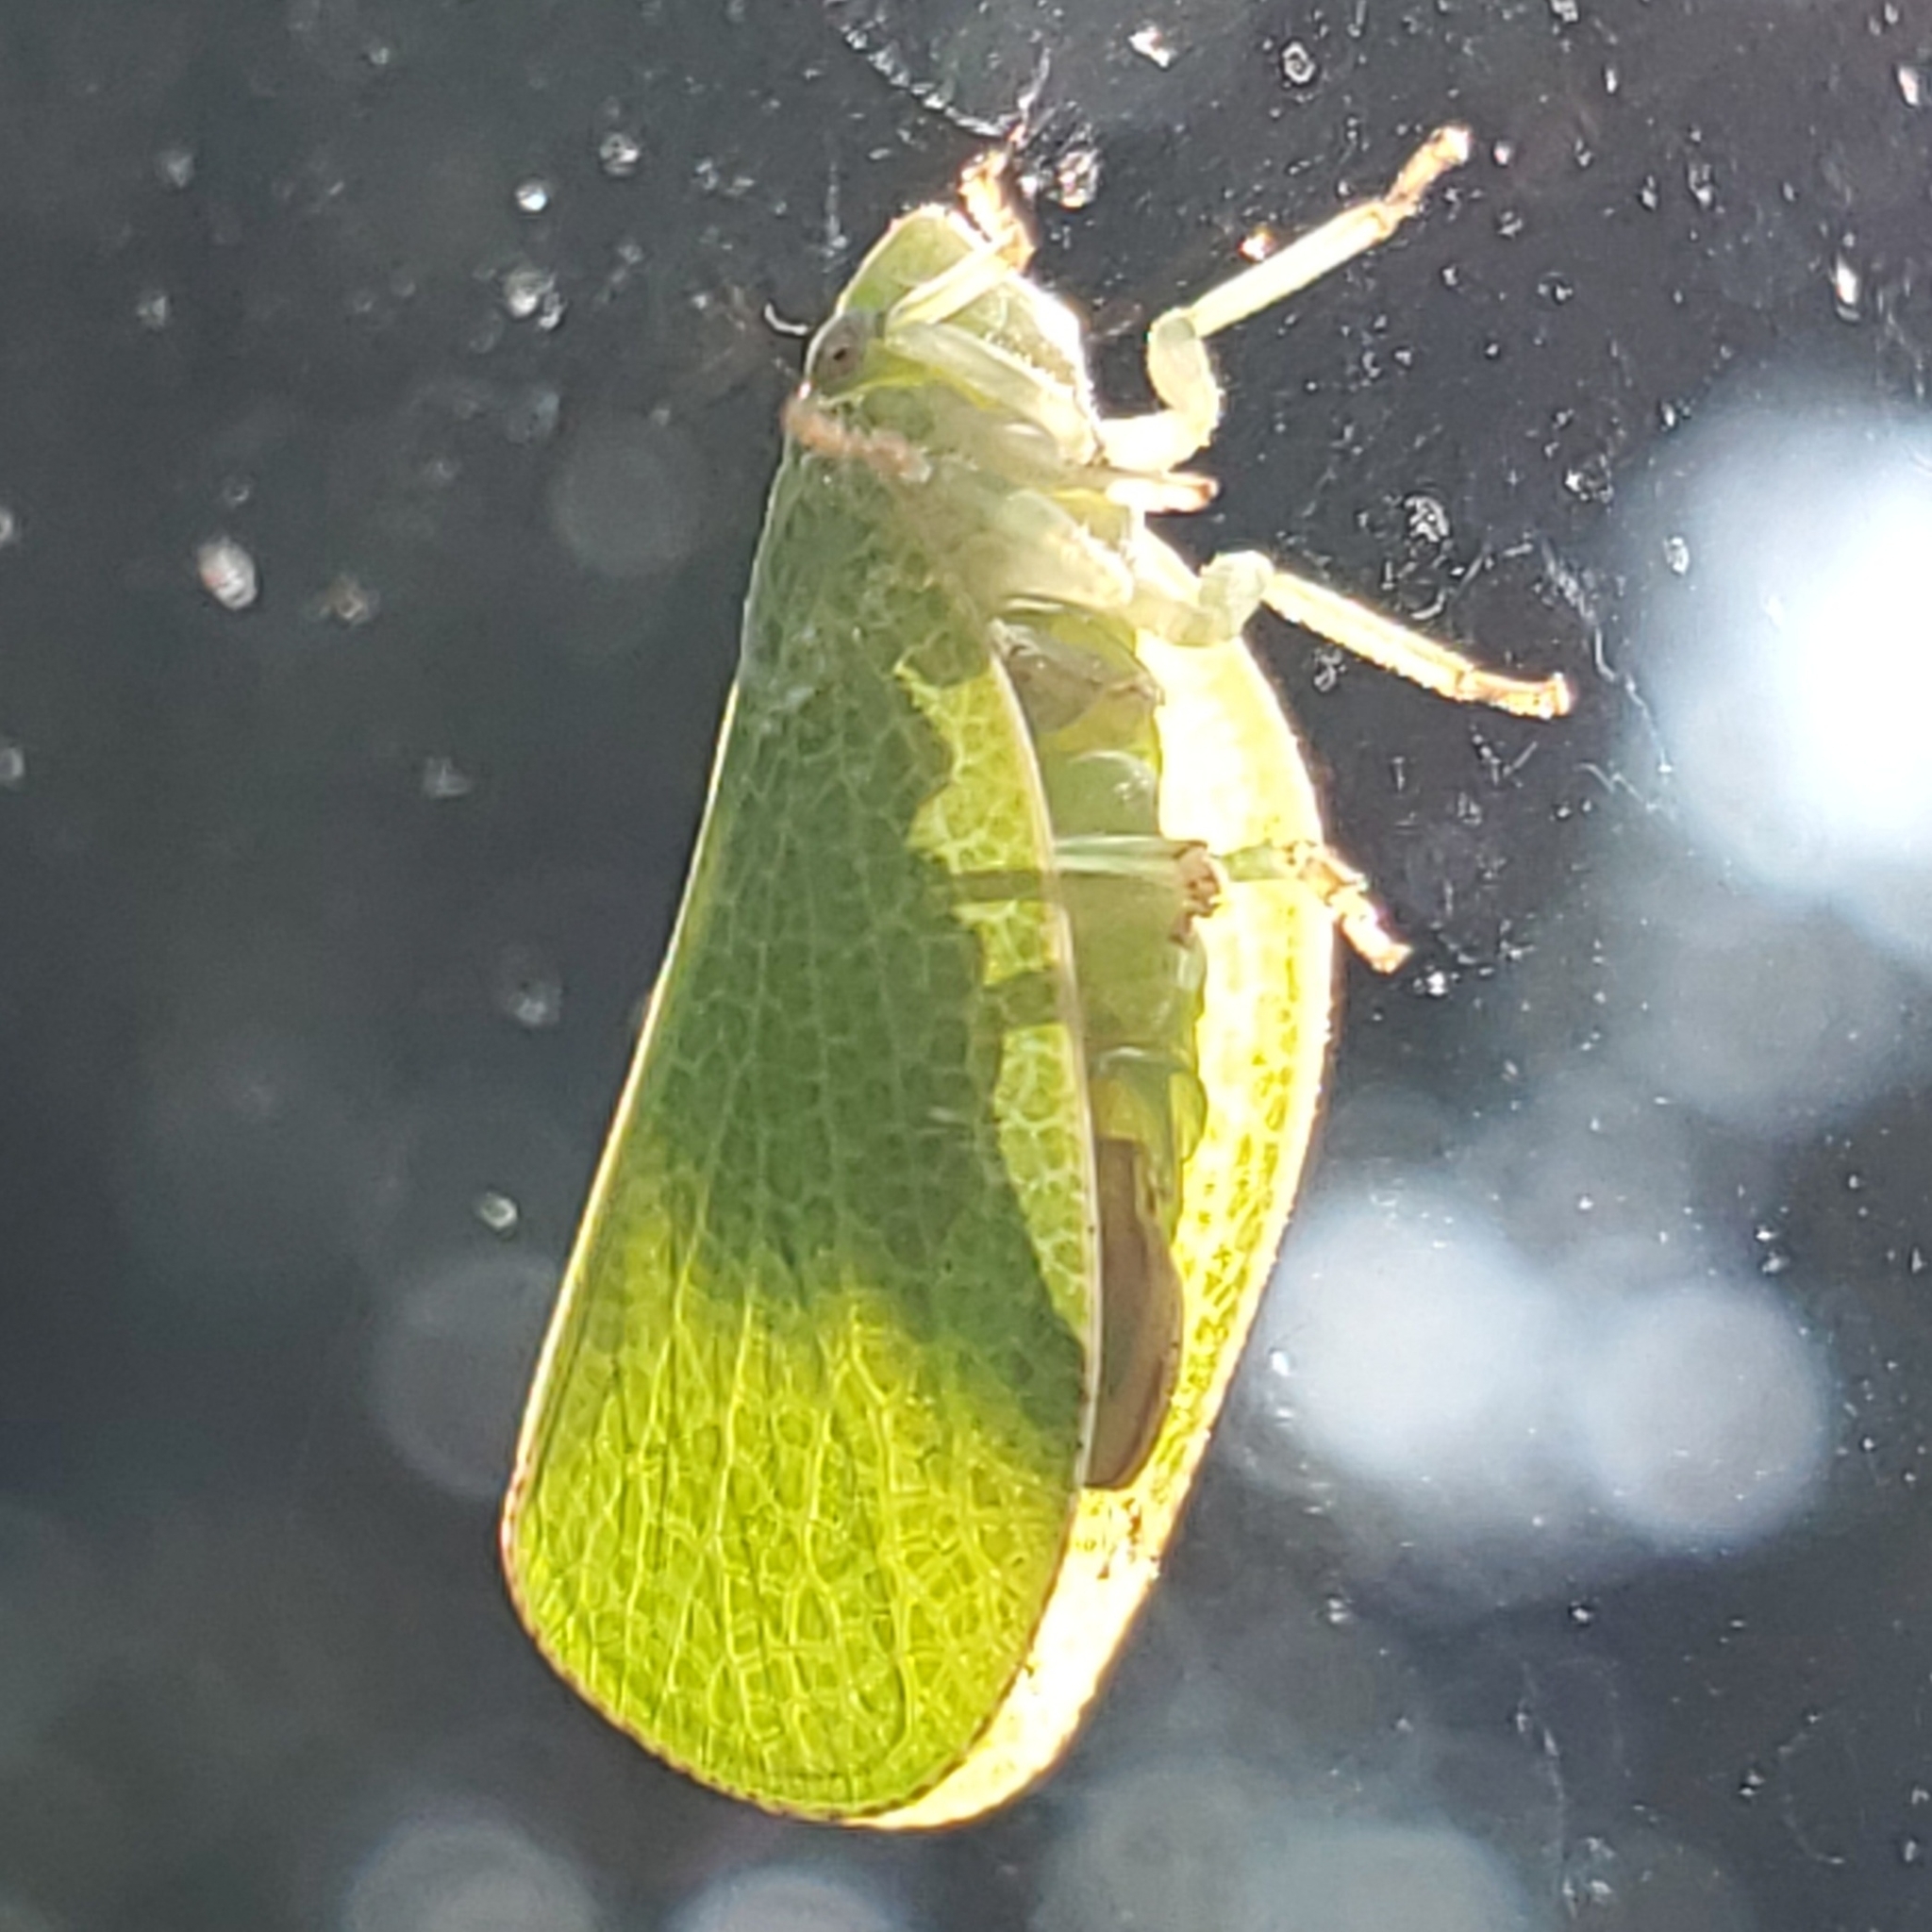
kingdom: Animalia
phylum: Arthropoda
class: Insecta
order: Hemiptera
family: Acanaloniidae
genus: Acanalonia
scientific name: Acanalonia conica
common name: Green cone-headed planthopper
